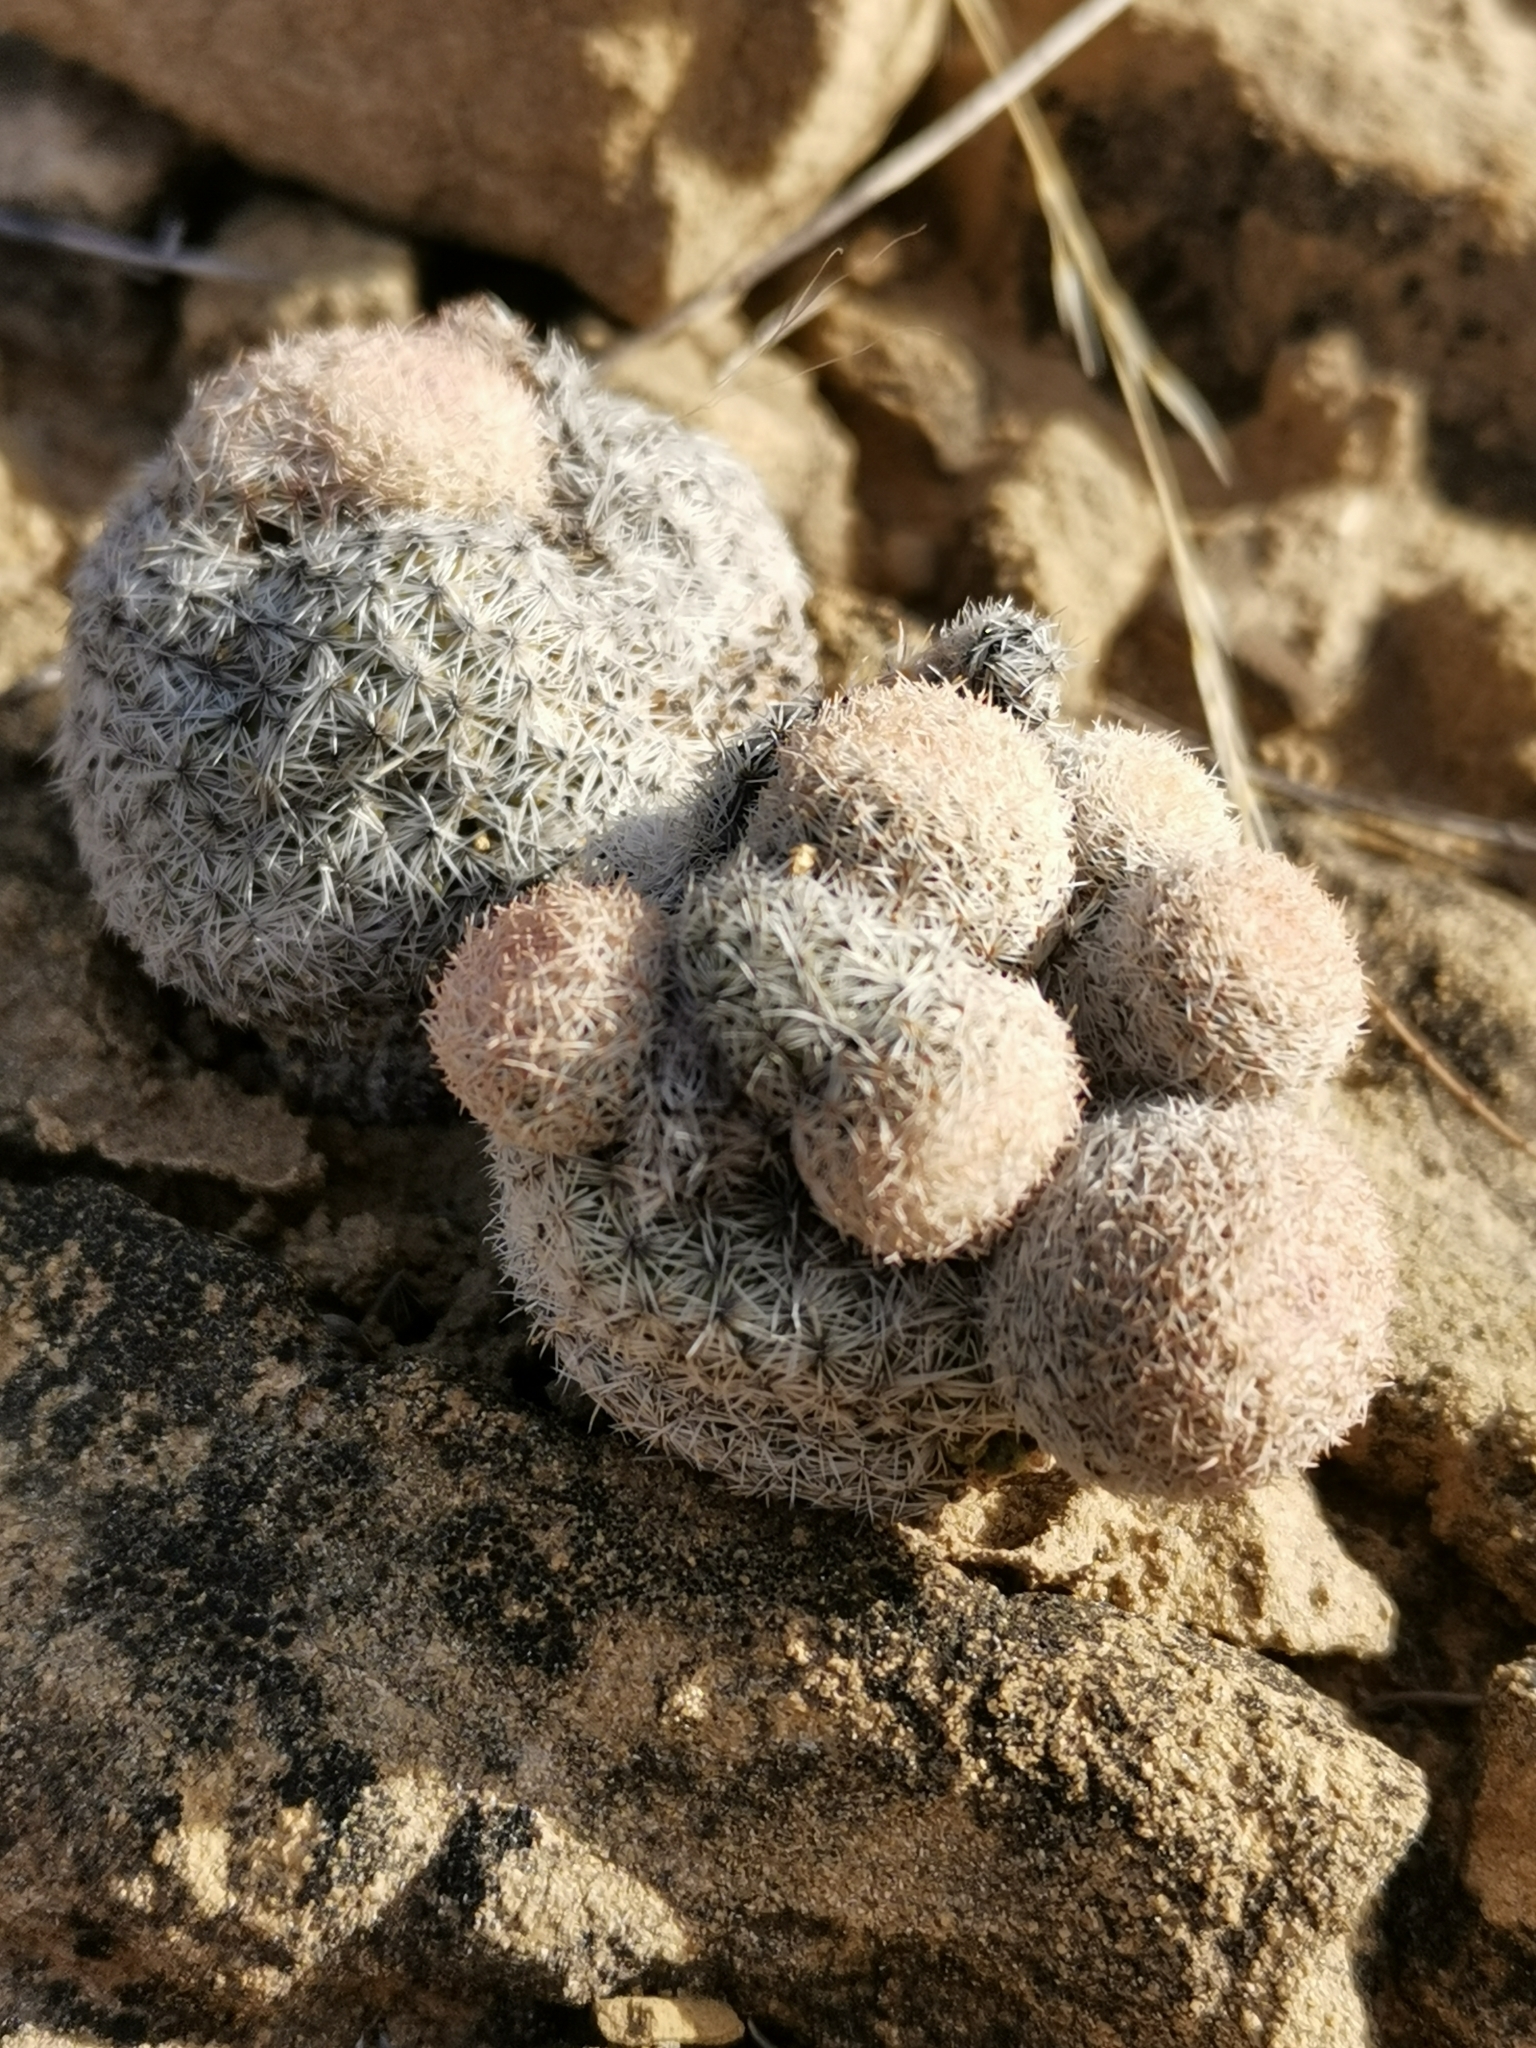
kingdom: Plantae
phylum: Tracheophyta
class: Magnoliopsida
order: Caryophyllales
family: Cactaceae
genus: Epithelantha
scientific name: Epithelantha greggii
